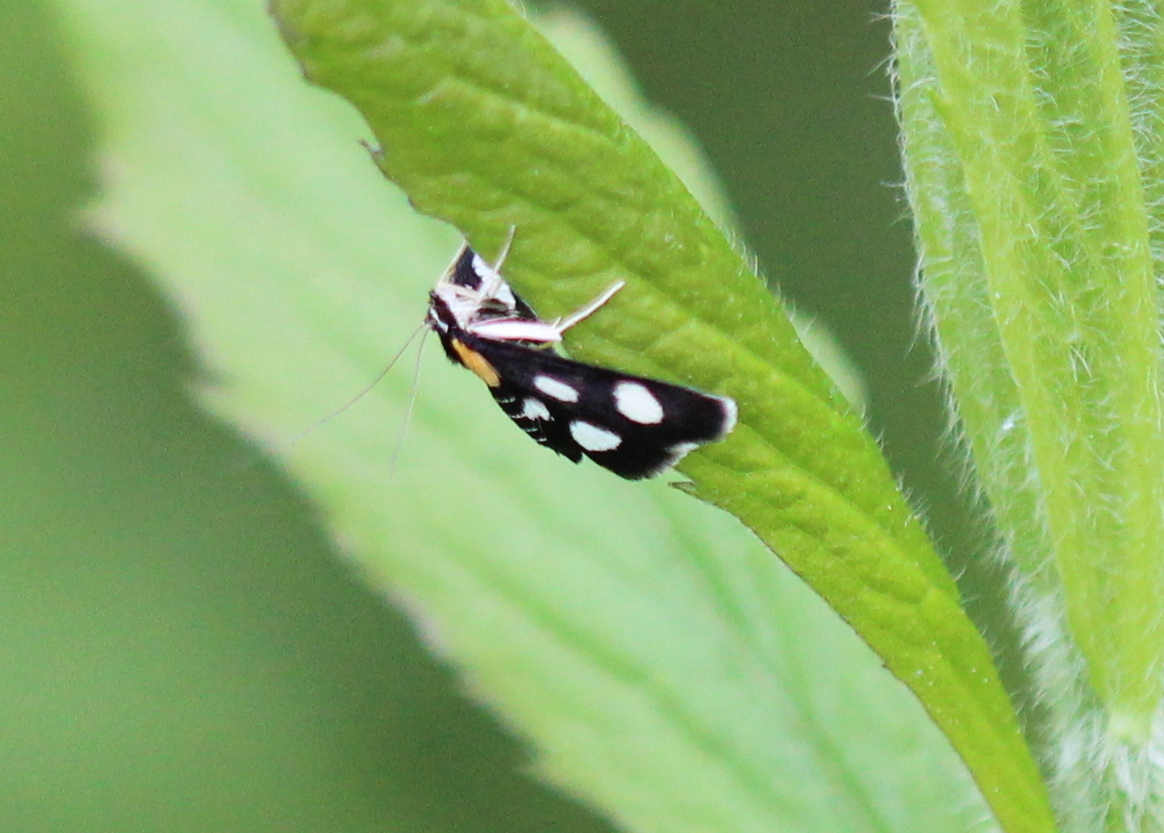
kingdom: Animalia
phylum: Arthropoda
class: Insecta
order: Lepidoptera
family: Crambidae
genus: Anania
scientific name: Anania funebris
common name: White-spotted sable moth
